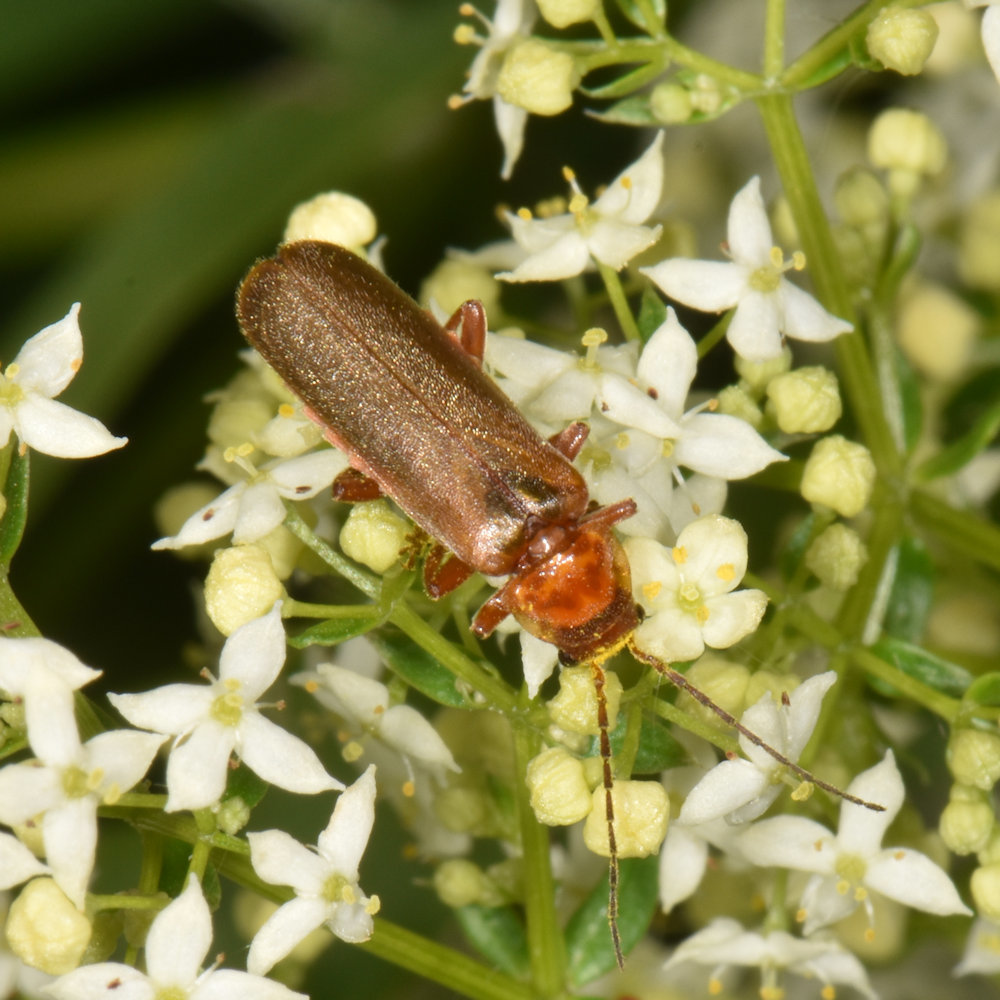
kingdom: Animalia
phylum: Arthropoda
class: Insecta
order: Coleoptera
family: Cantharidae
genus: Cantharis
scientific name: Cantharis rufa
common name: Red-spotted soldier beetle
